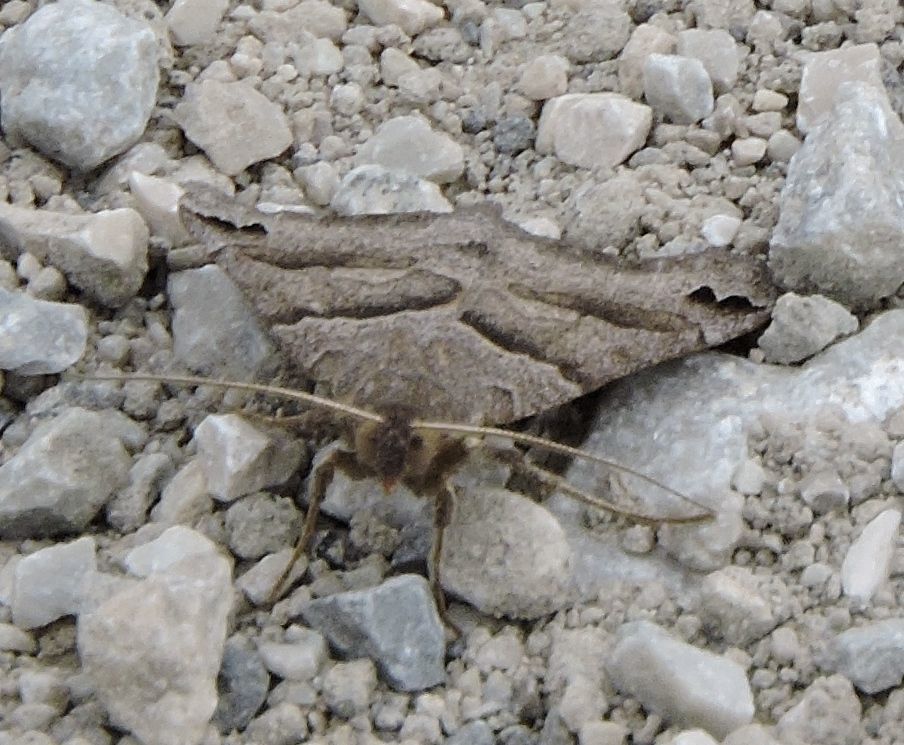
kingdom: Animalia
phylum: Arthropoda
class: Insecta
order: Lepidoptera
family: Erebidae
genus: Caenurgina
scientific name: Caenurgina erechtea
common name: Forage looper moth
